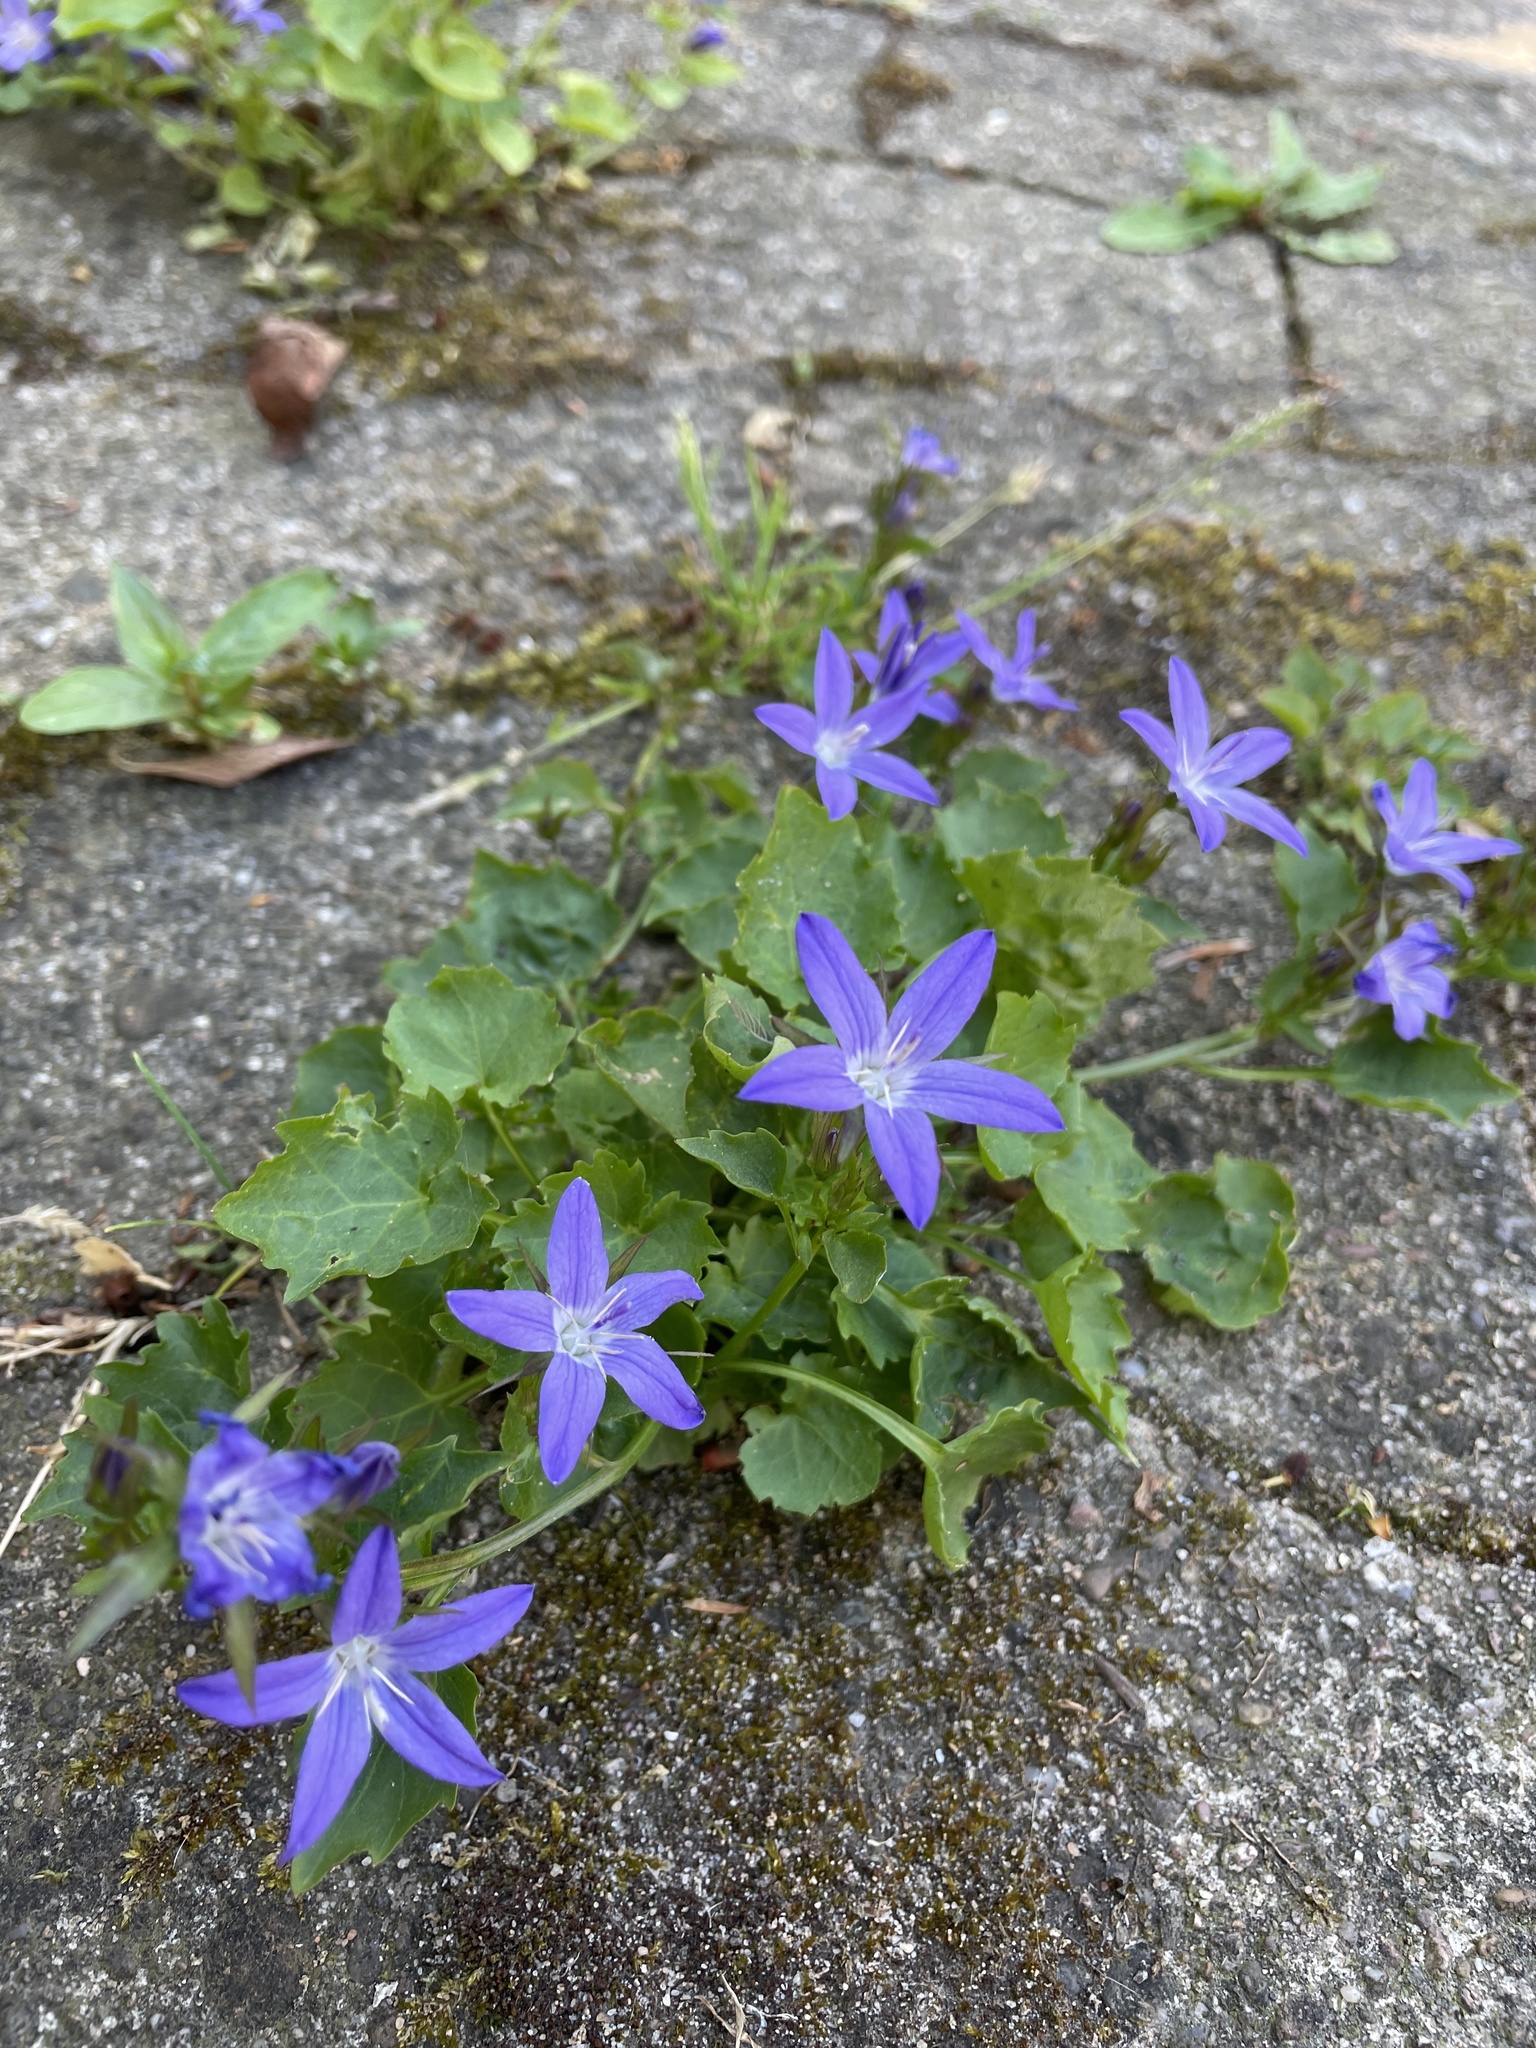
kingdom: Plantae
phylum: Tracheophyta
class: Magnoliopsida
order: Asterales
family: Campanulaceae
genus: Campanula
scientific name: Campanula poscharskyana
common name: Trailing bellflower
